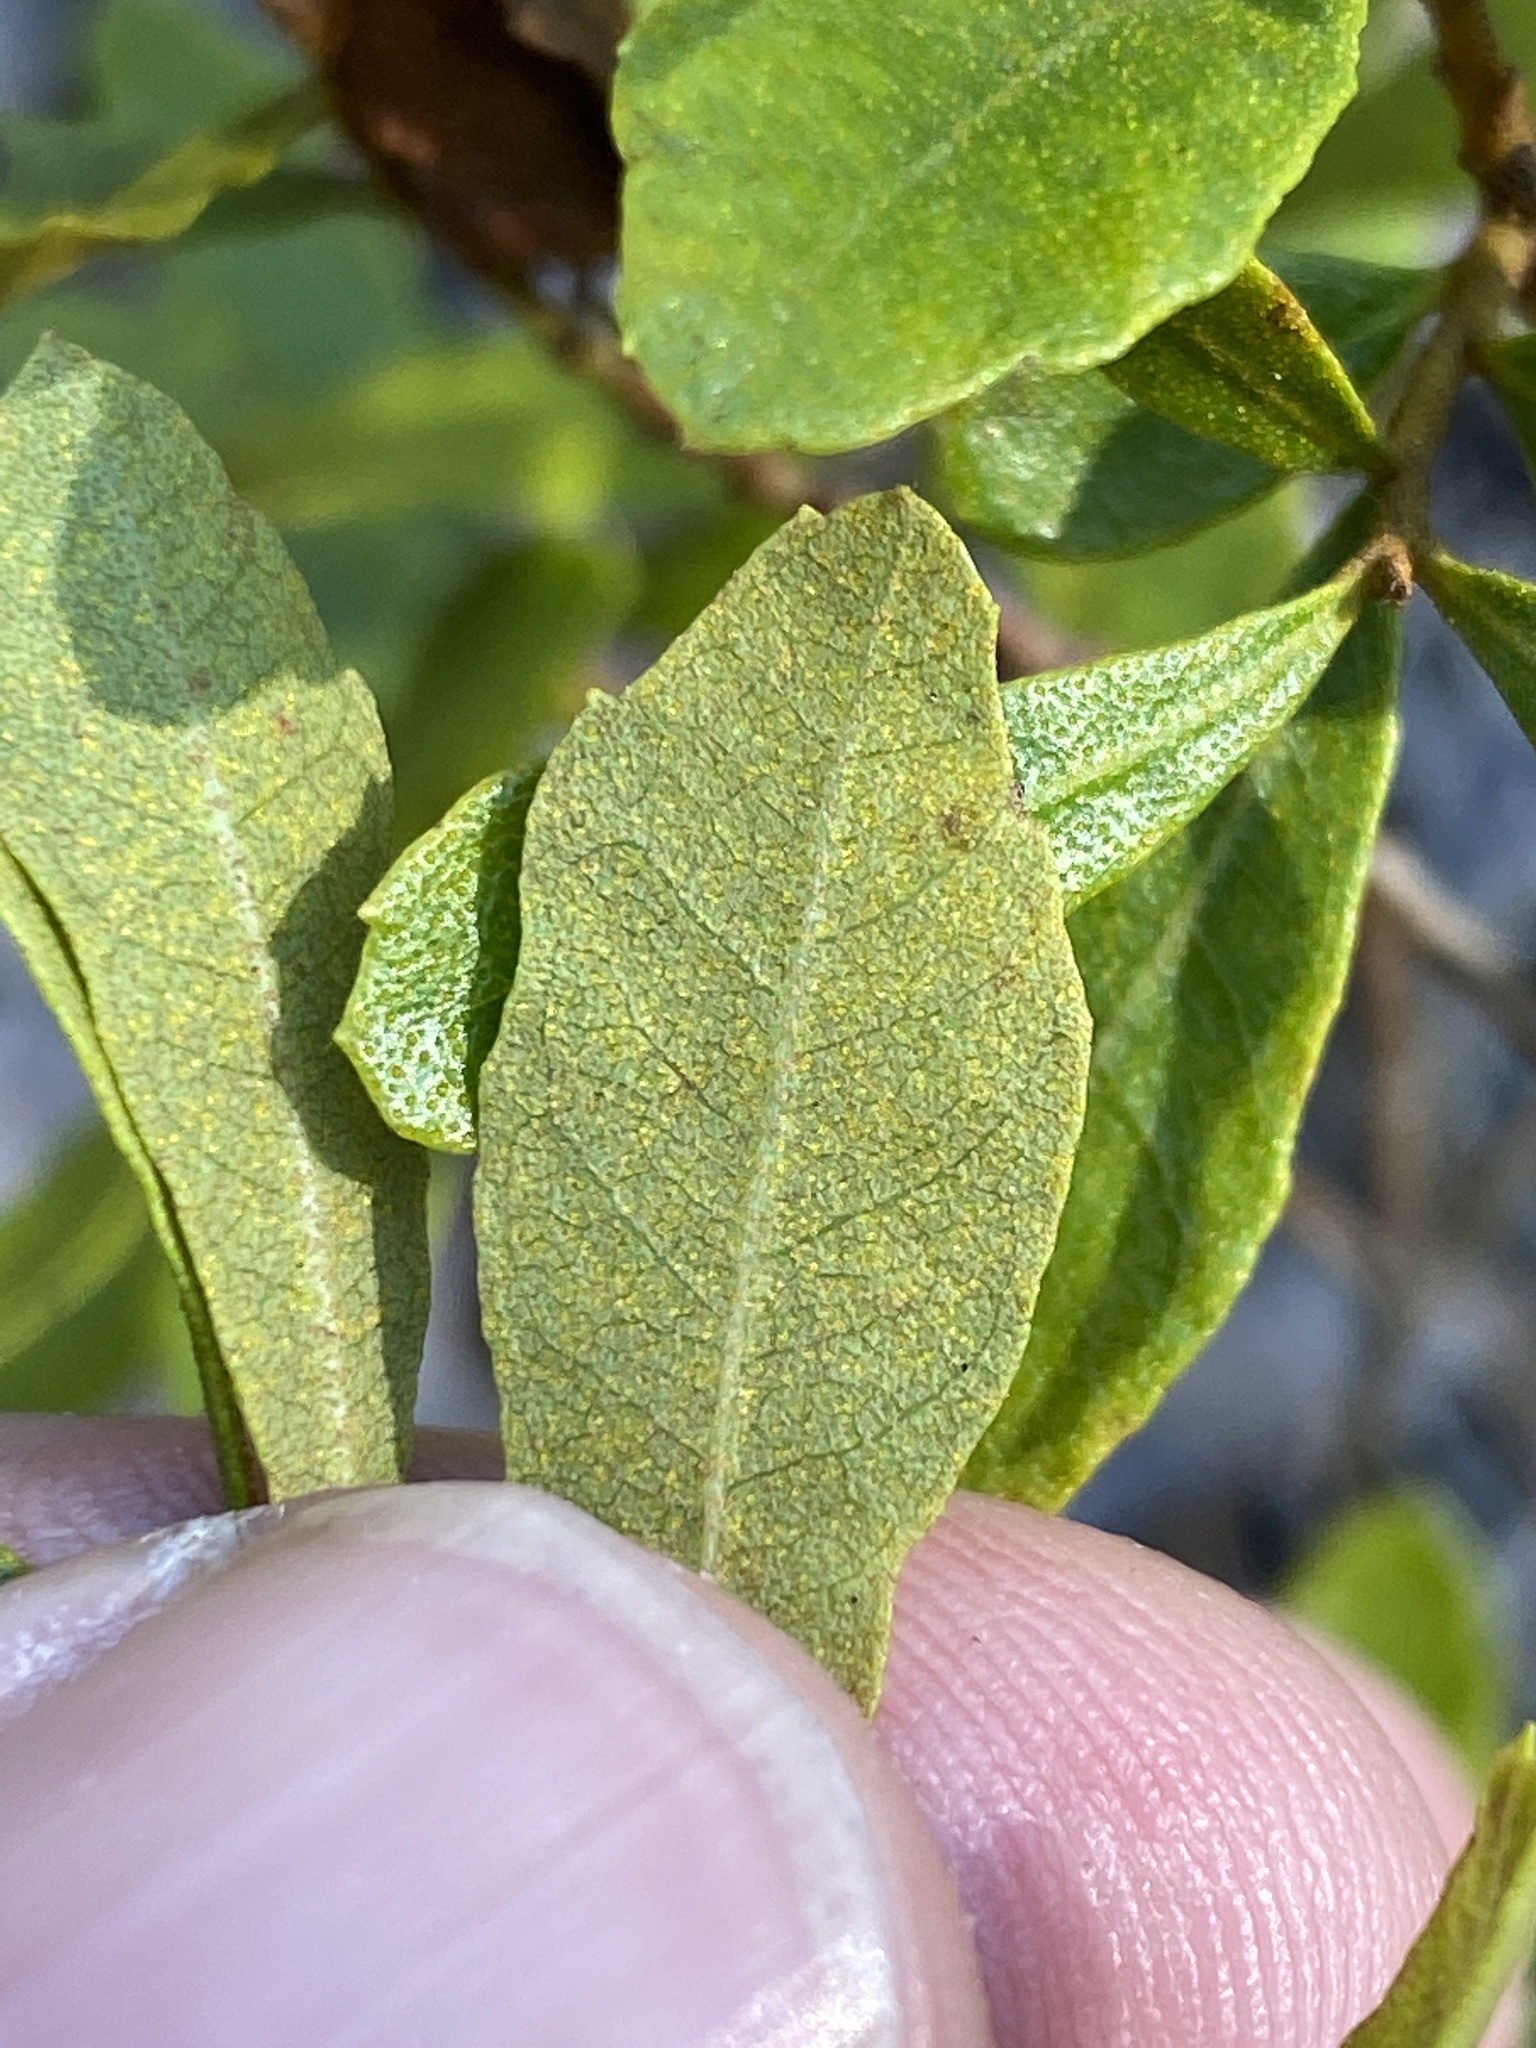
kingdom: Plantae
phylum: Tracheophyta
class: Magnoliopsida
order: Fagales
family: Myricaceae
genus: Morella
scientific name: Morella cerifera
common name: Wax myrtle
